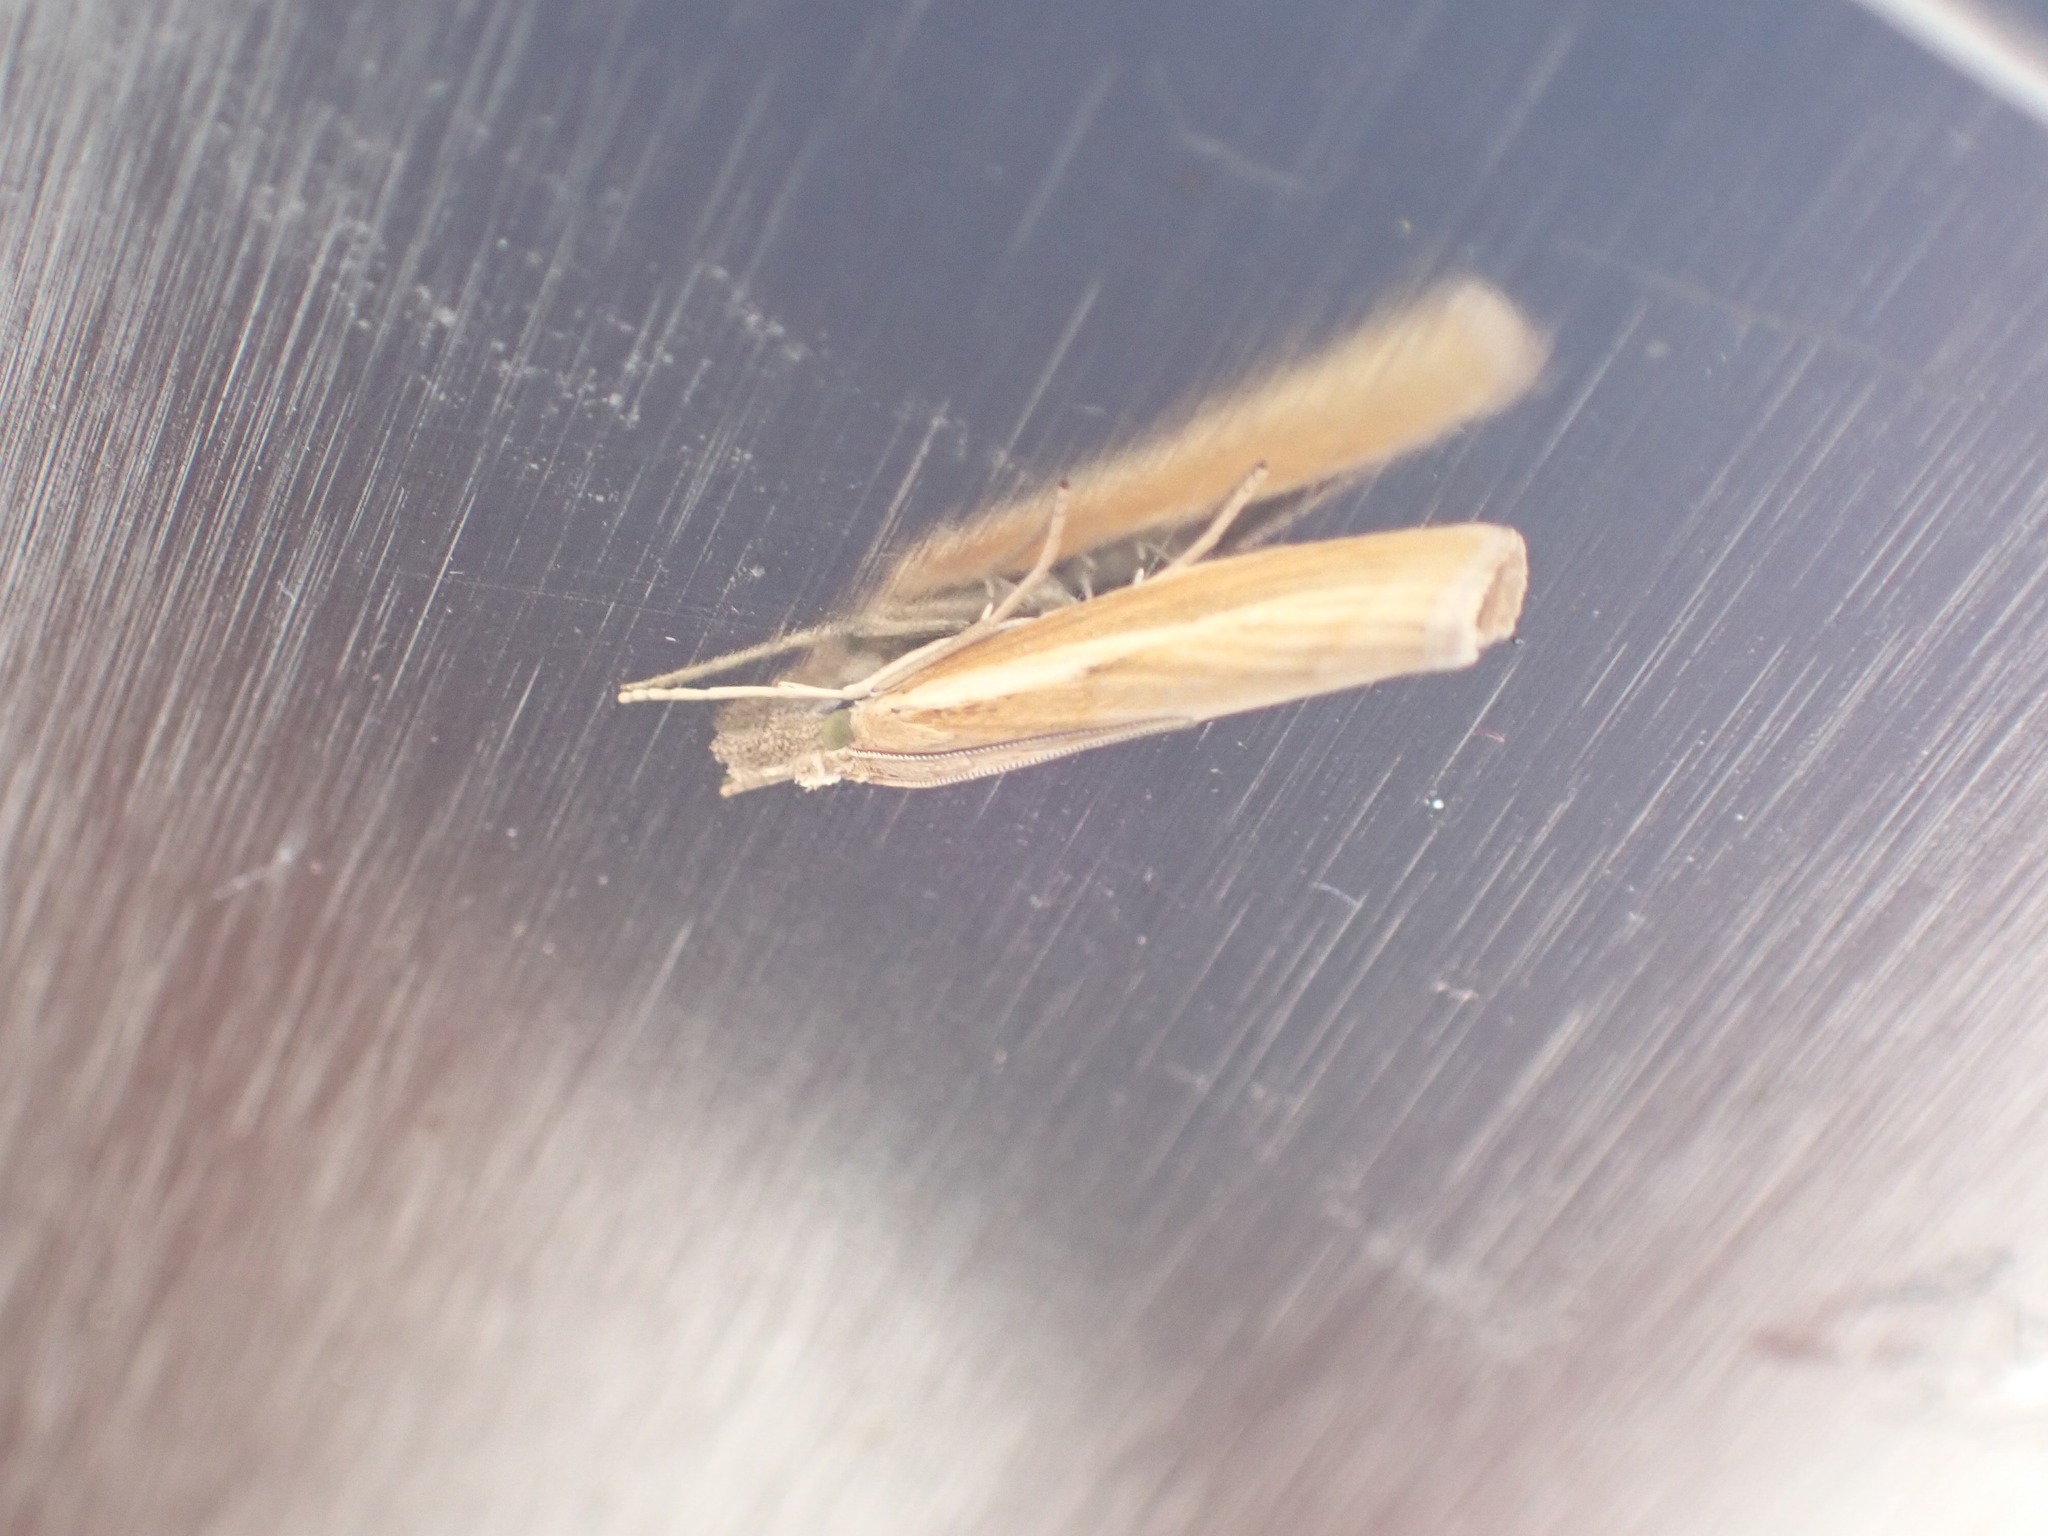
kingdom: Animalia
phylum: Arthropoda
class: Insecta
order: Lepidoptera
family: Crambidae
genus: Agriphila
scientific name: Agriphila tristellus
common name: Common grass-veneer
